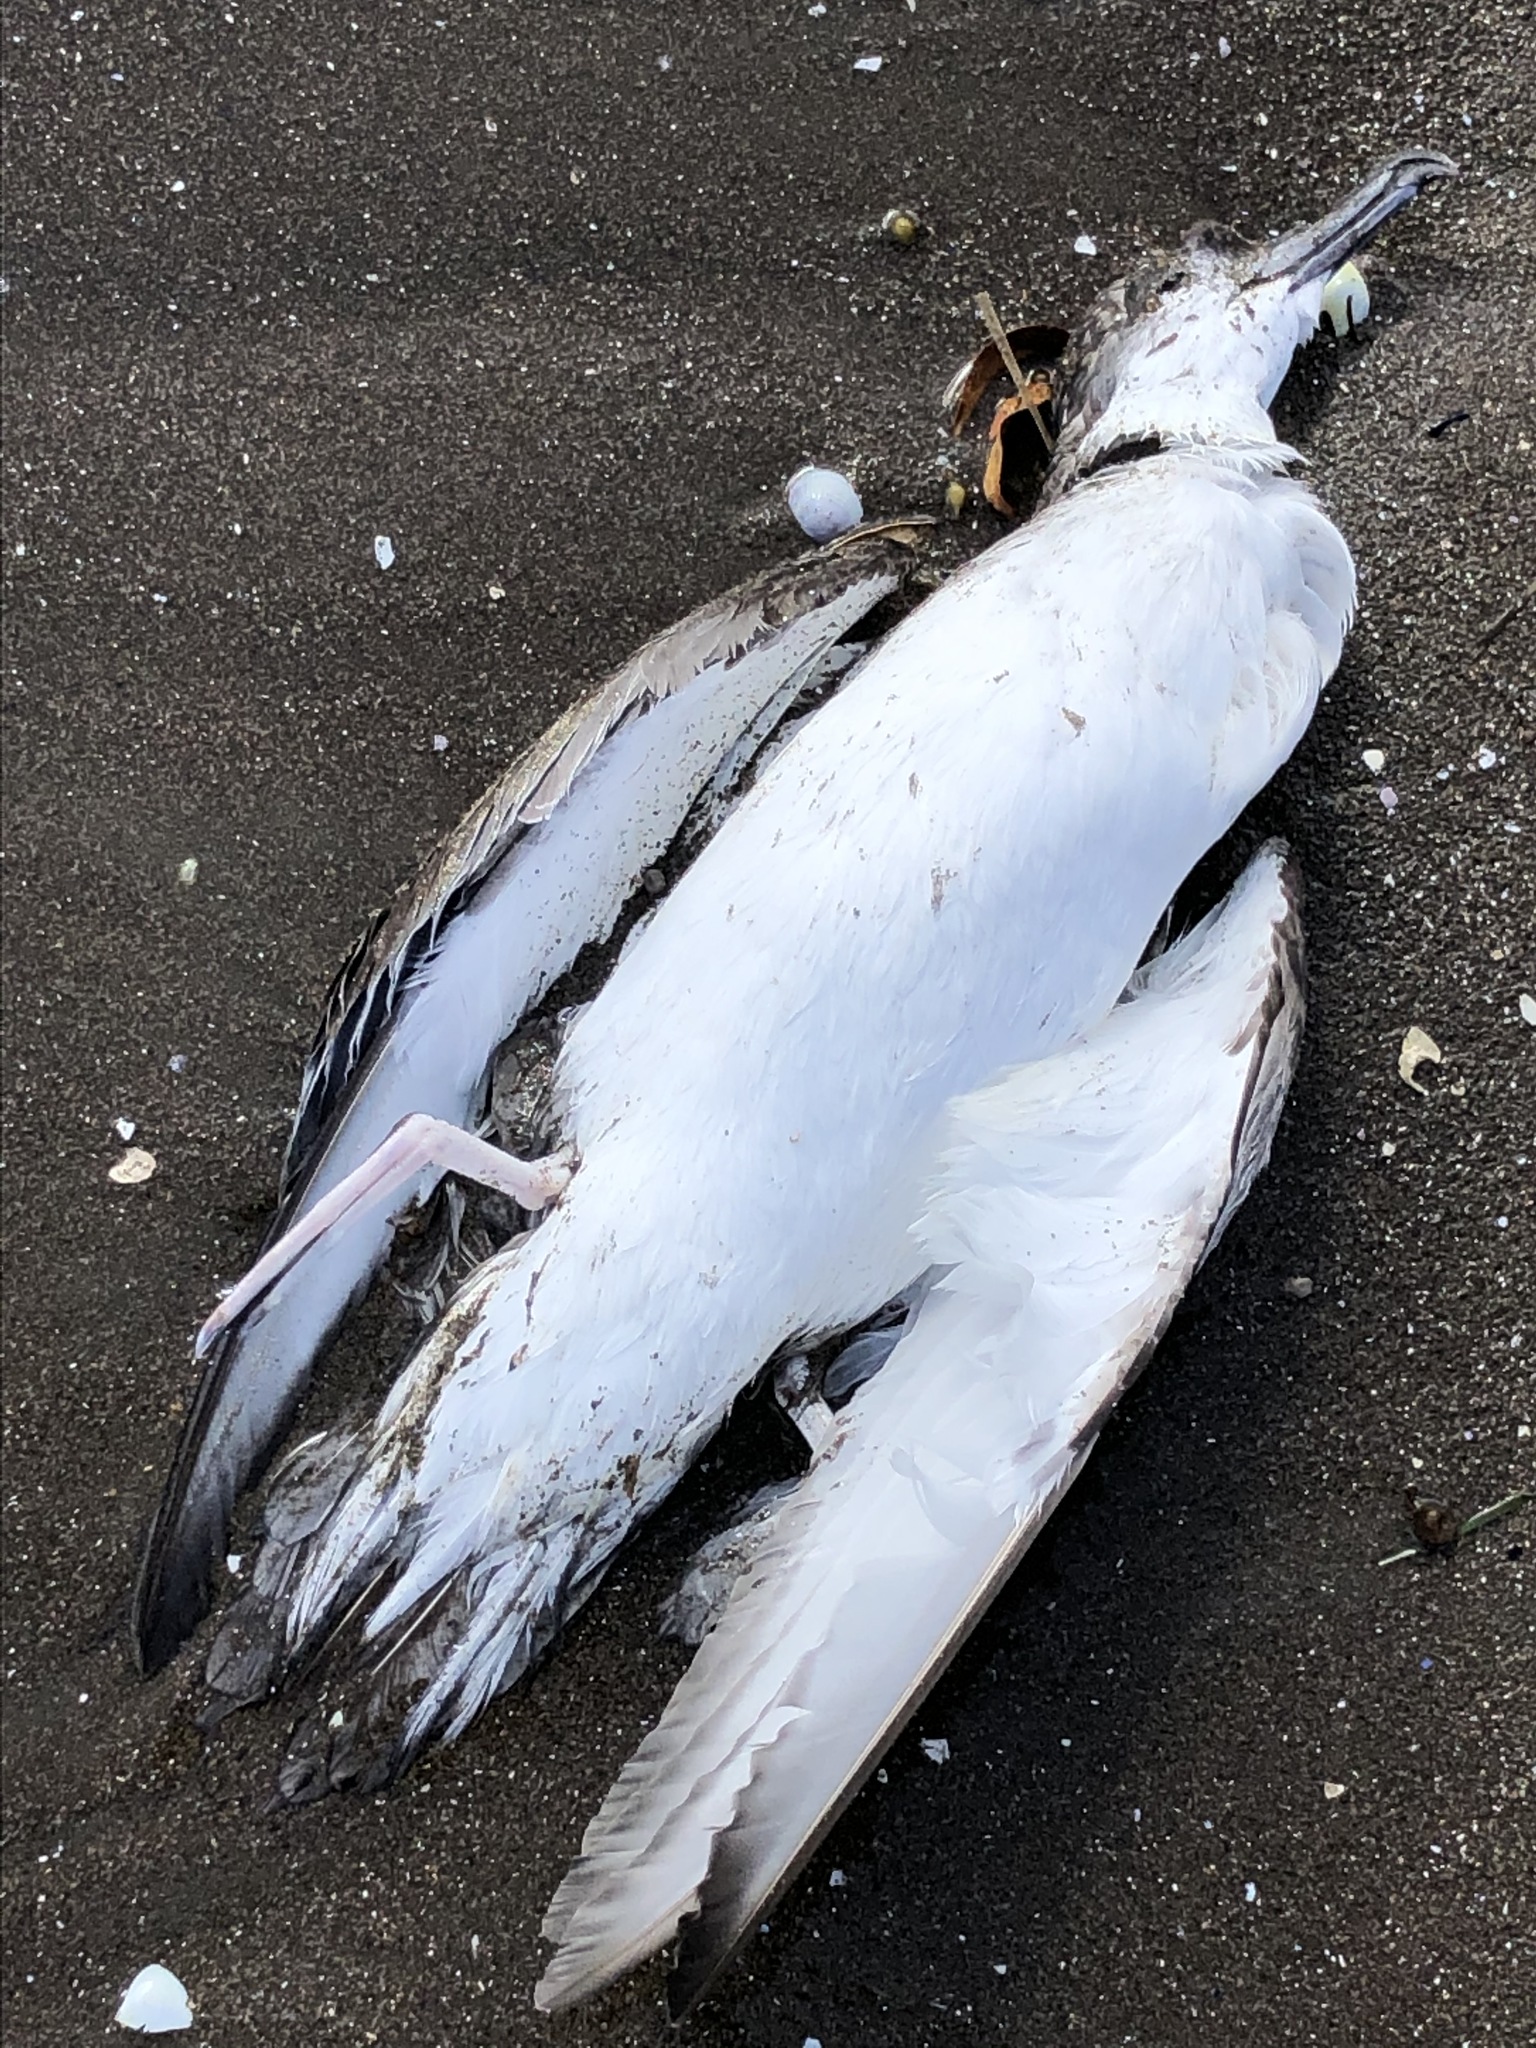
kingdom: Animalia
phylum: Chordata
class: Aves
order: Procellariiformes
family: Procellariidae
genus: Puffinus
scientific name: Puffinus bulleri
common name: Buller's shearwater
